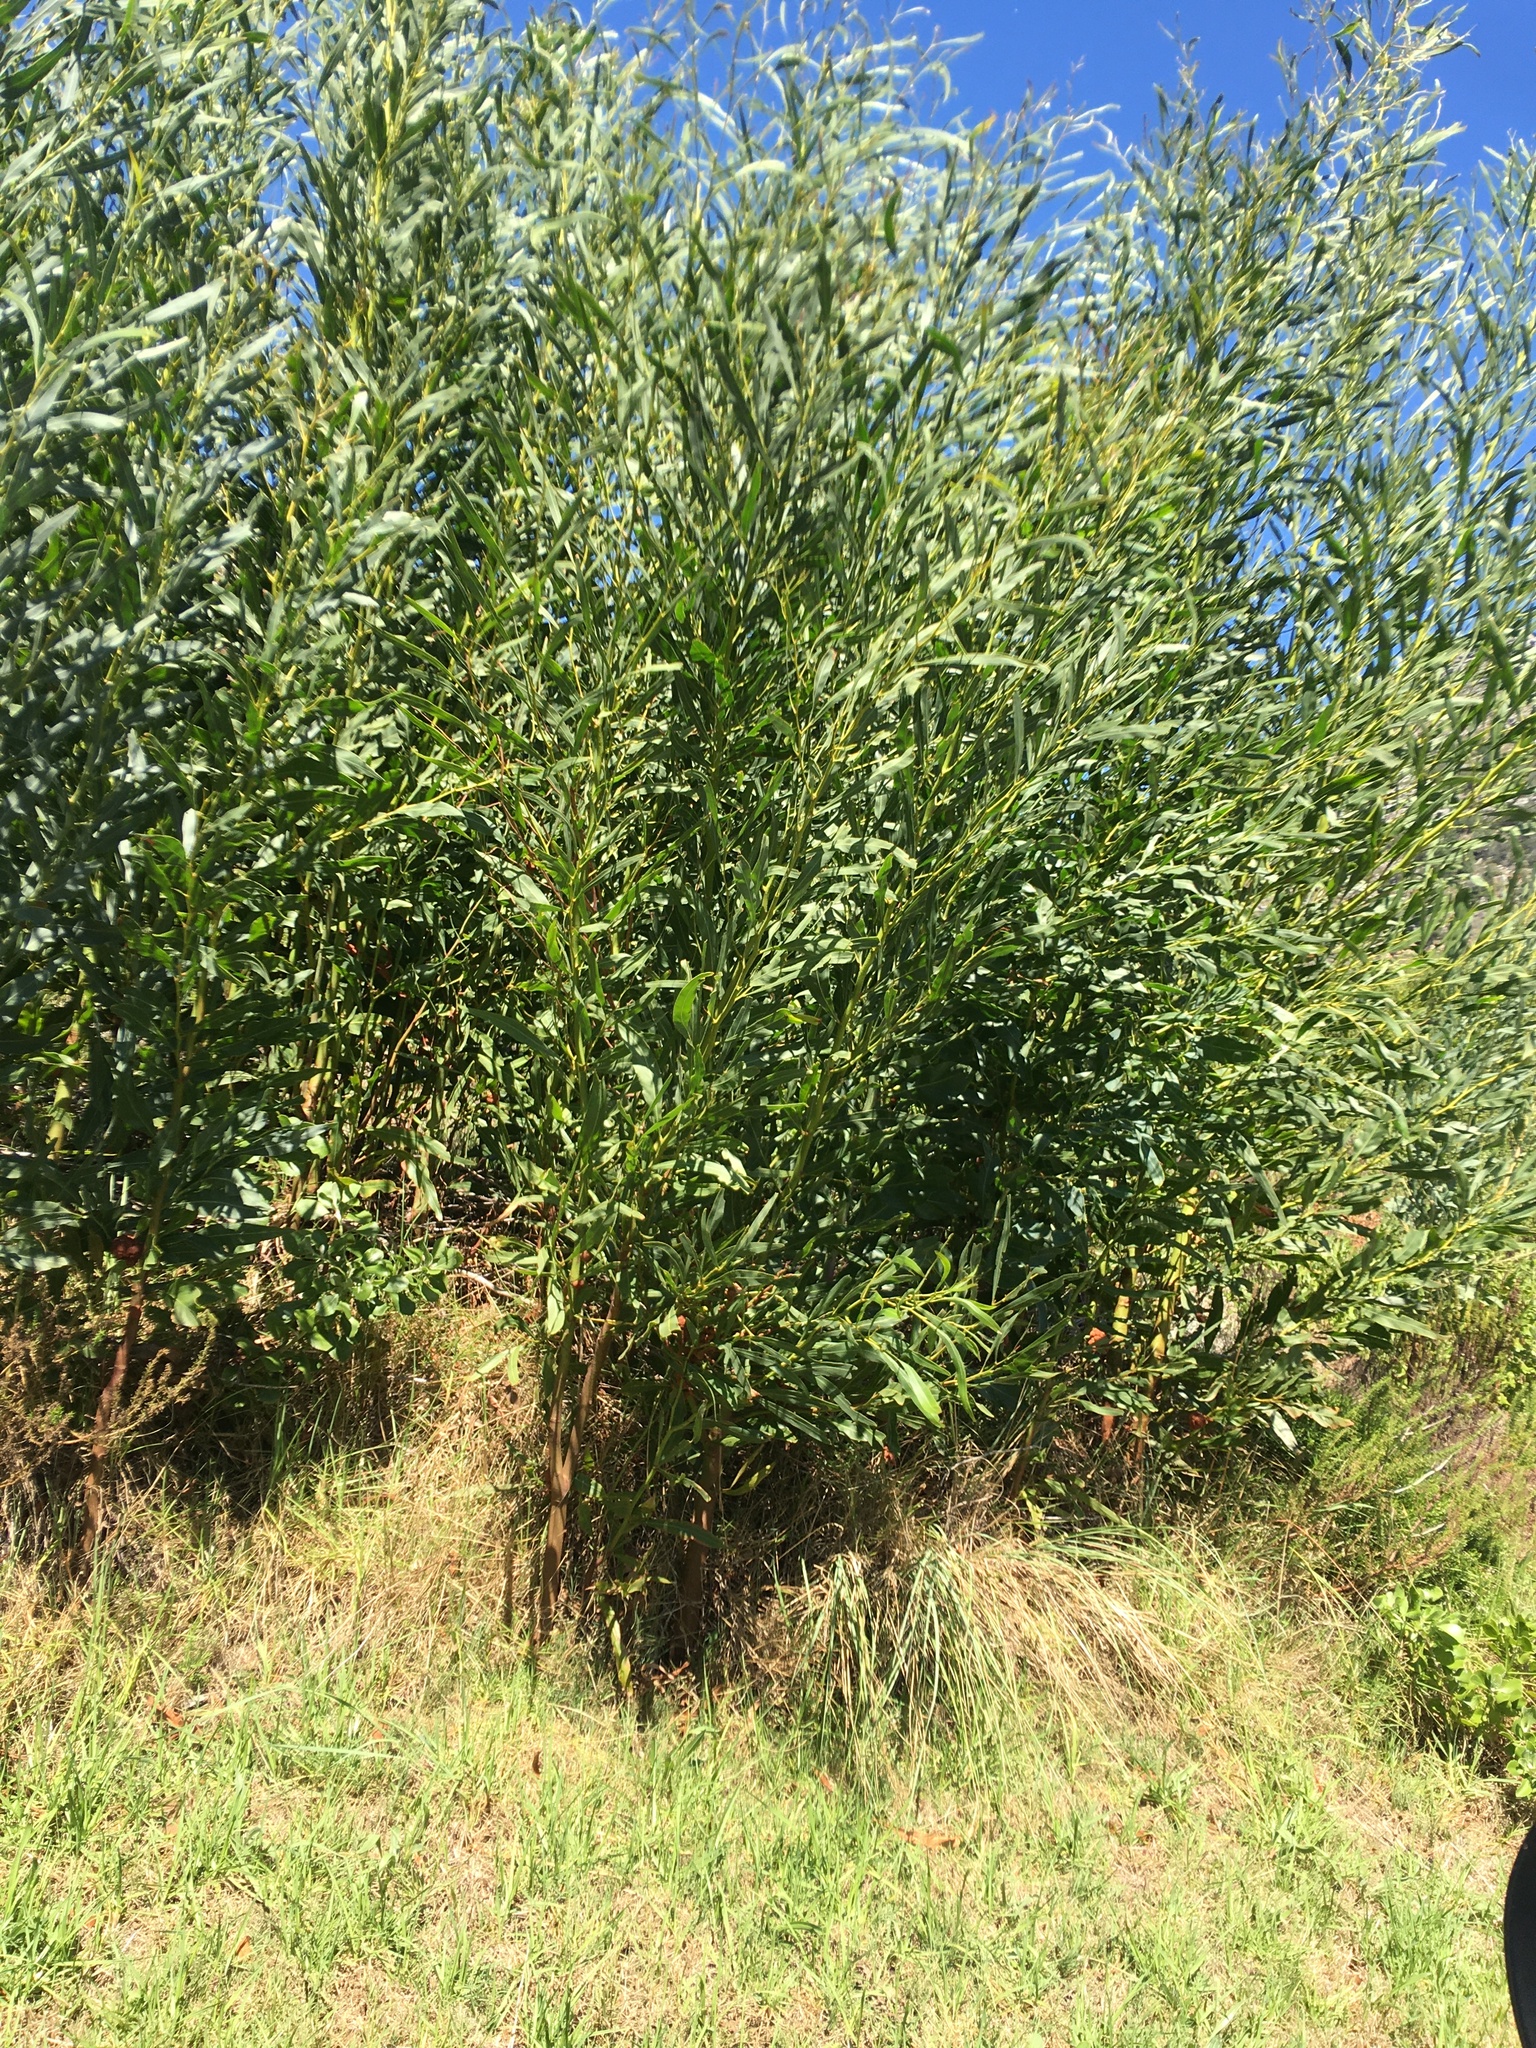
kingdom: Plantae
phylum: Tracheophyta
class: Magnoliopsida
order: Fabales
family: Fabaceae
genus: Acacia
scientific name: Acacia saligna
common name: Orange wattle
